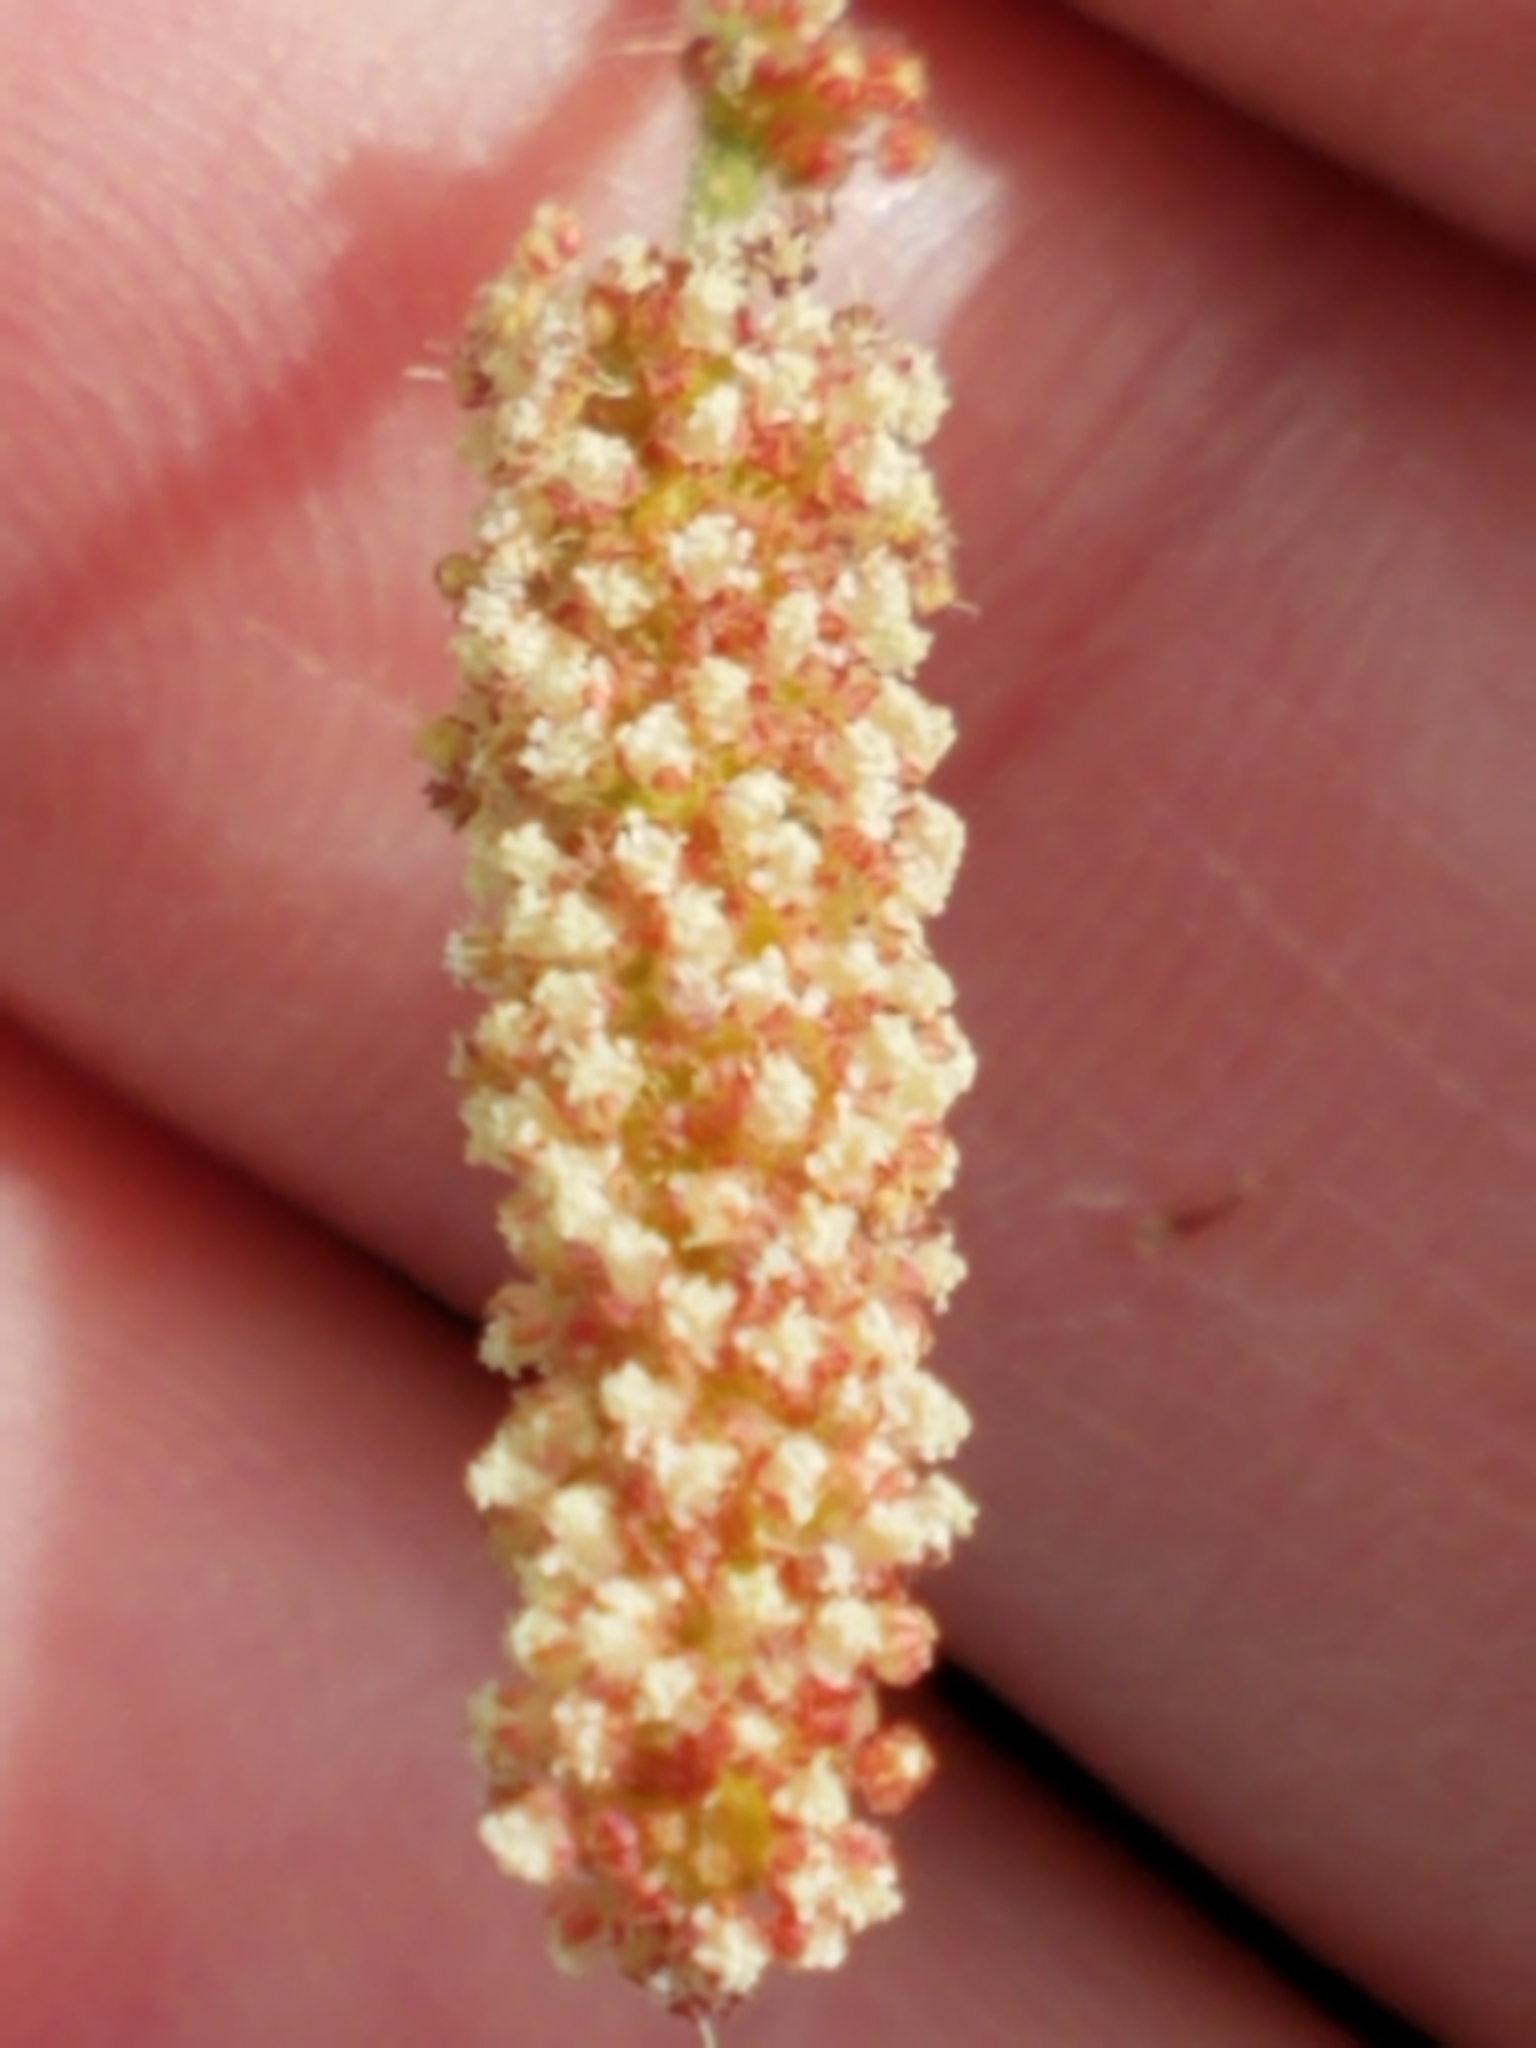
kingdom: Plantae
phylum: Tracheophyta
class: Magnoliopsida
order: Malpighiales
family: Euphorbiaceae
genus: Acalypha
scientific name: Acalypha monostachya
